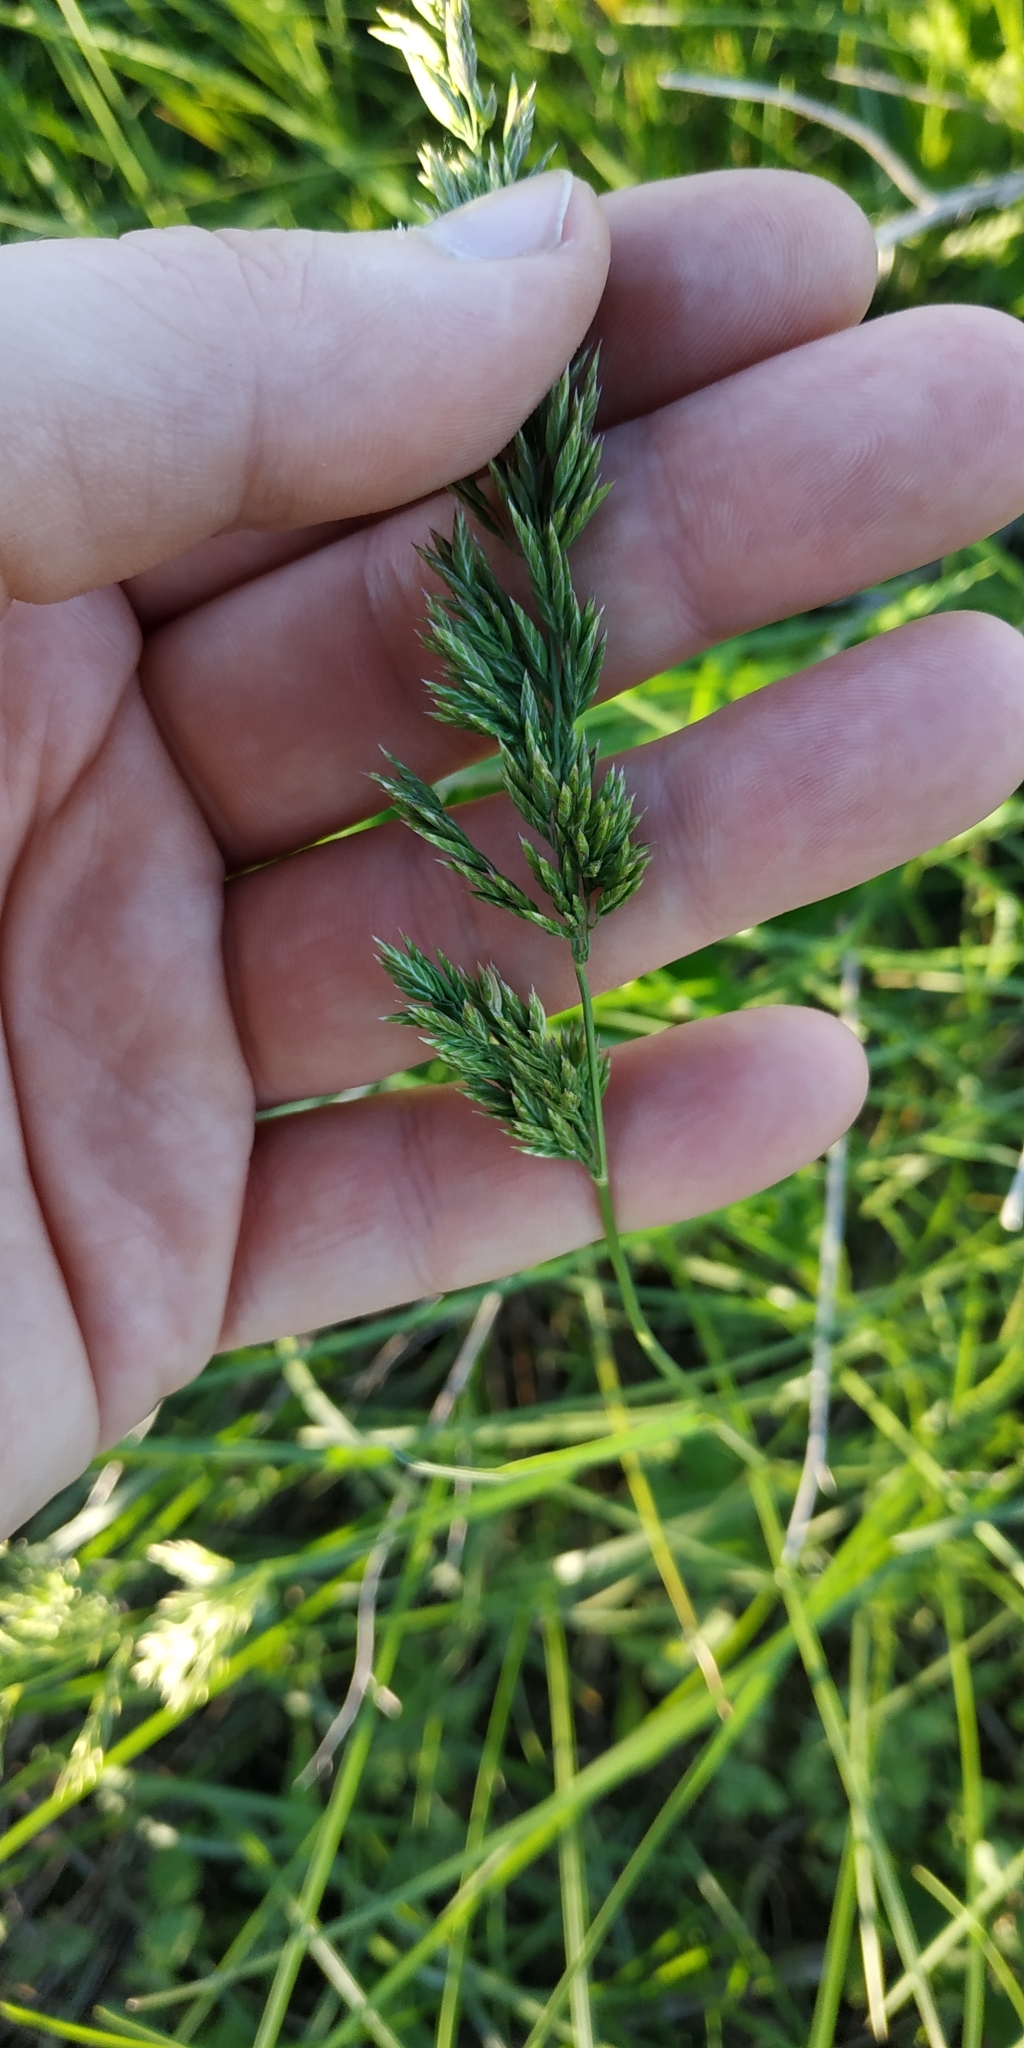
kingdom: Plantae
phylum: Tracheophyta
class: Liliopsida
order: Poales
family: Poaceae
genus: Poa
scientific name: Poa pratensis
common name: Kentucky bluegrass
